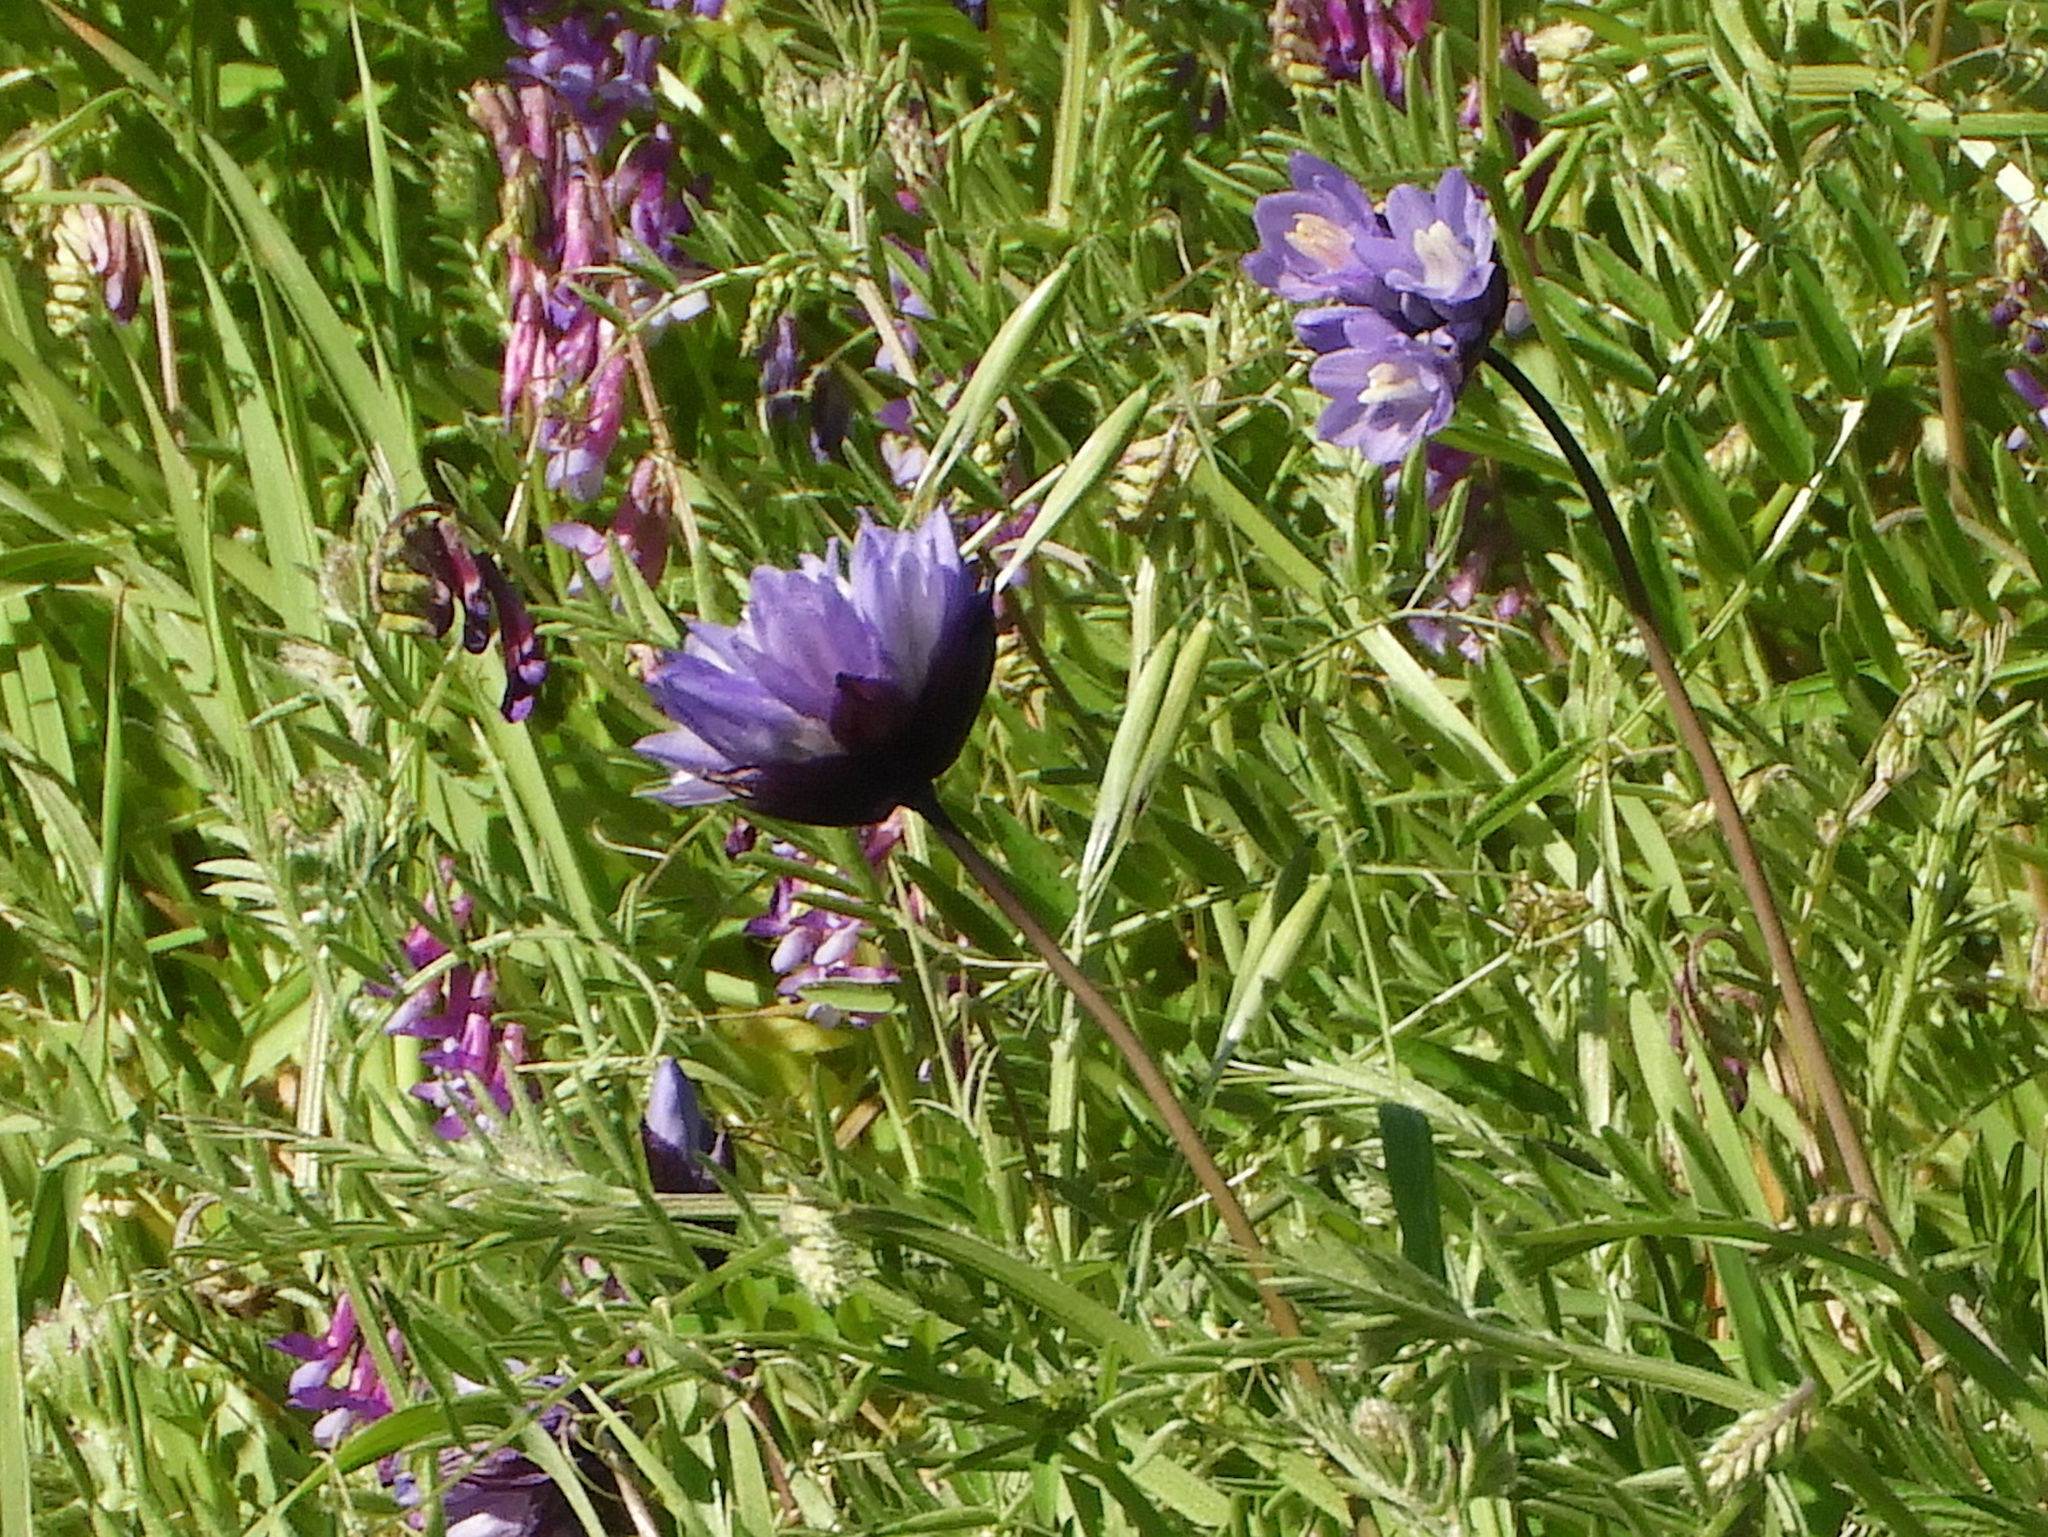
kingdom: Plantae
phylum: Tracheophyta
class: Liliopsida
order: Asparagales
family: Asparagaceae
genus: Dipterostemon
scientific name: Dipterostemon capitatus
